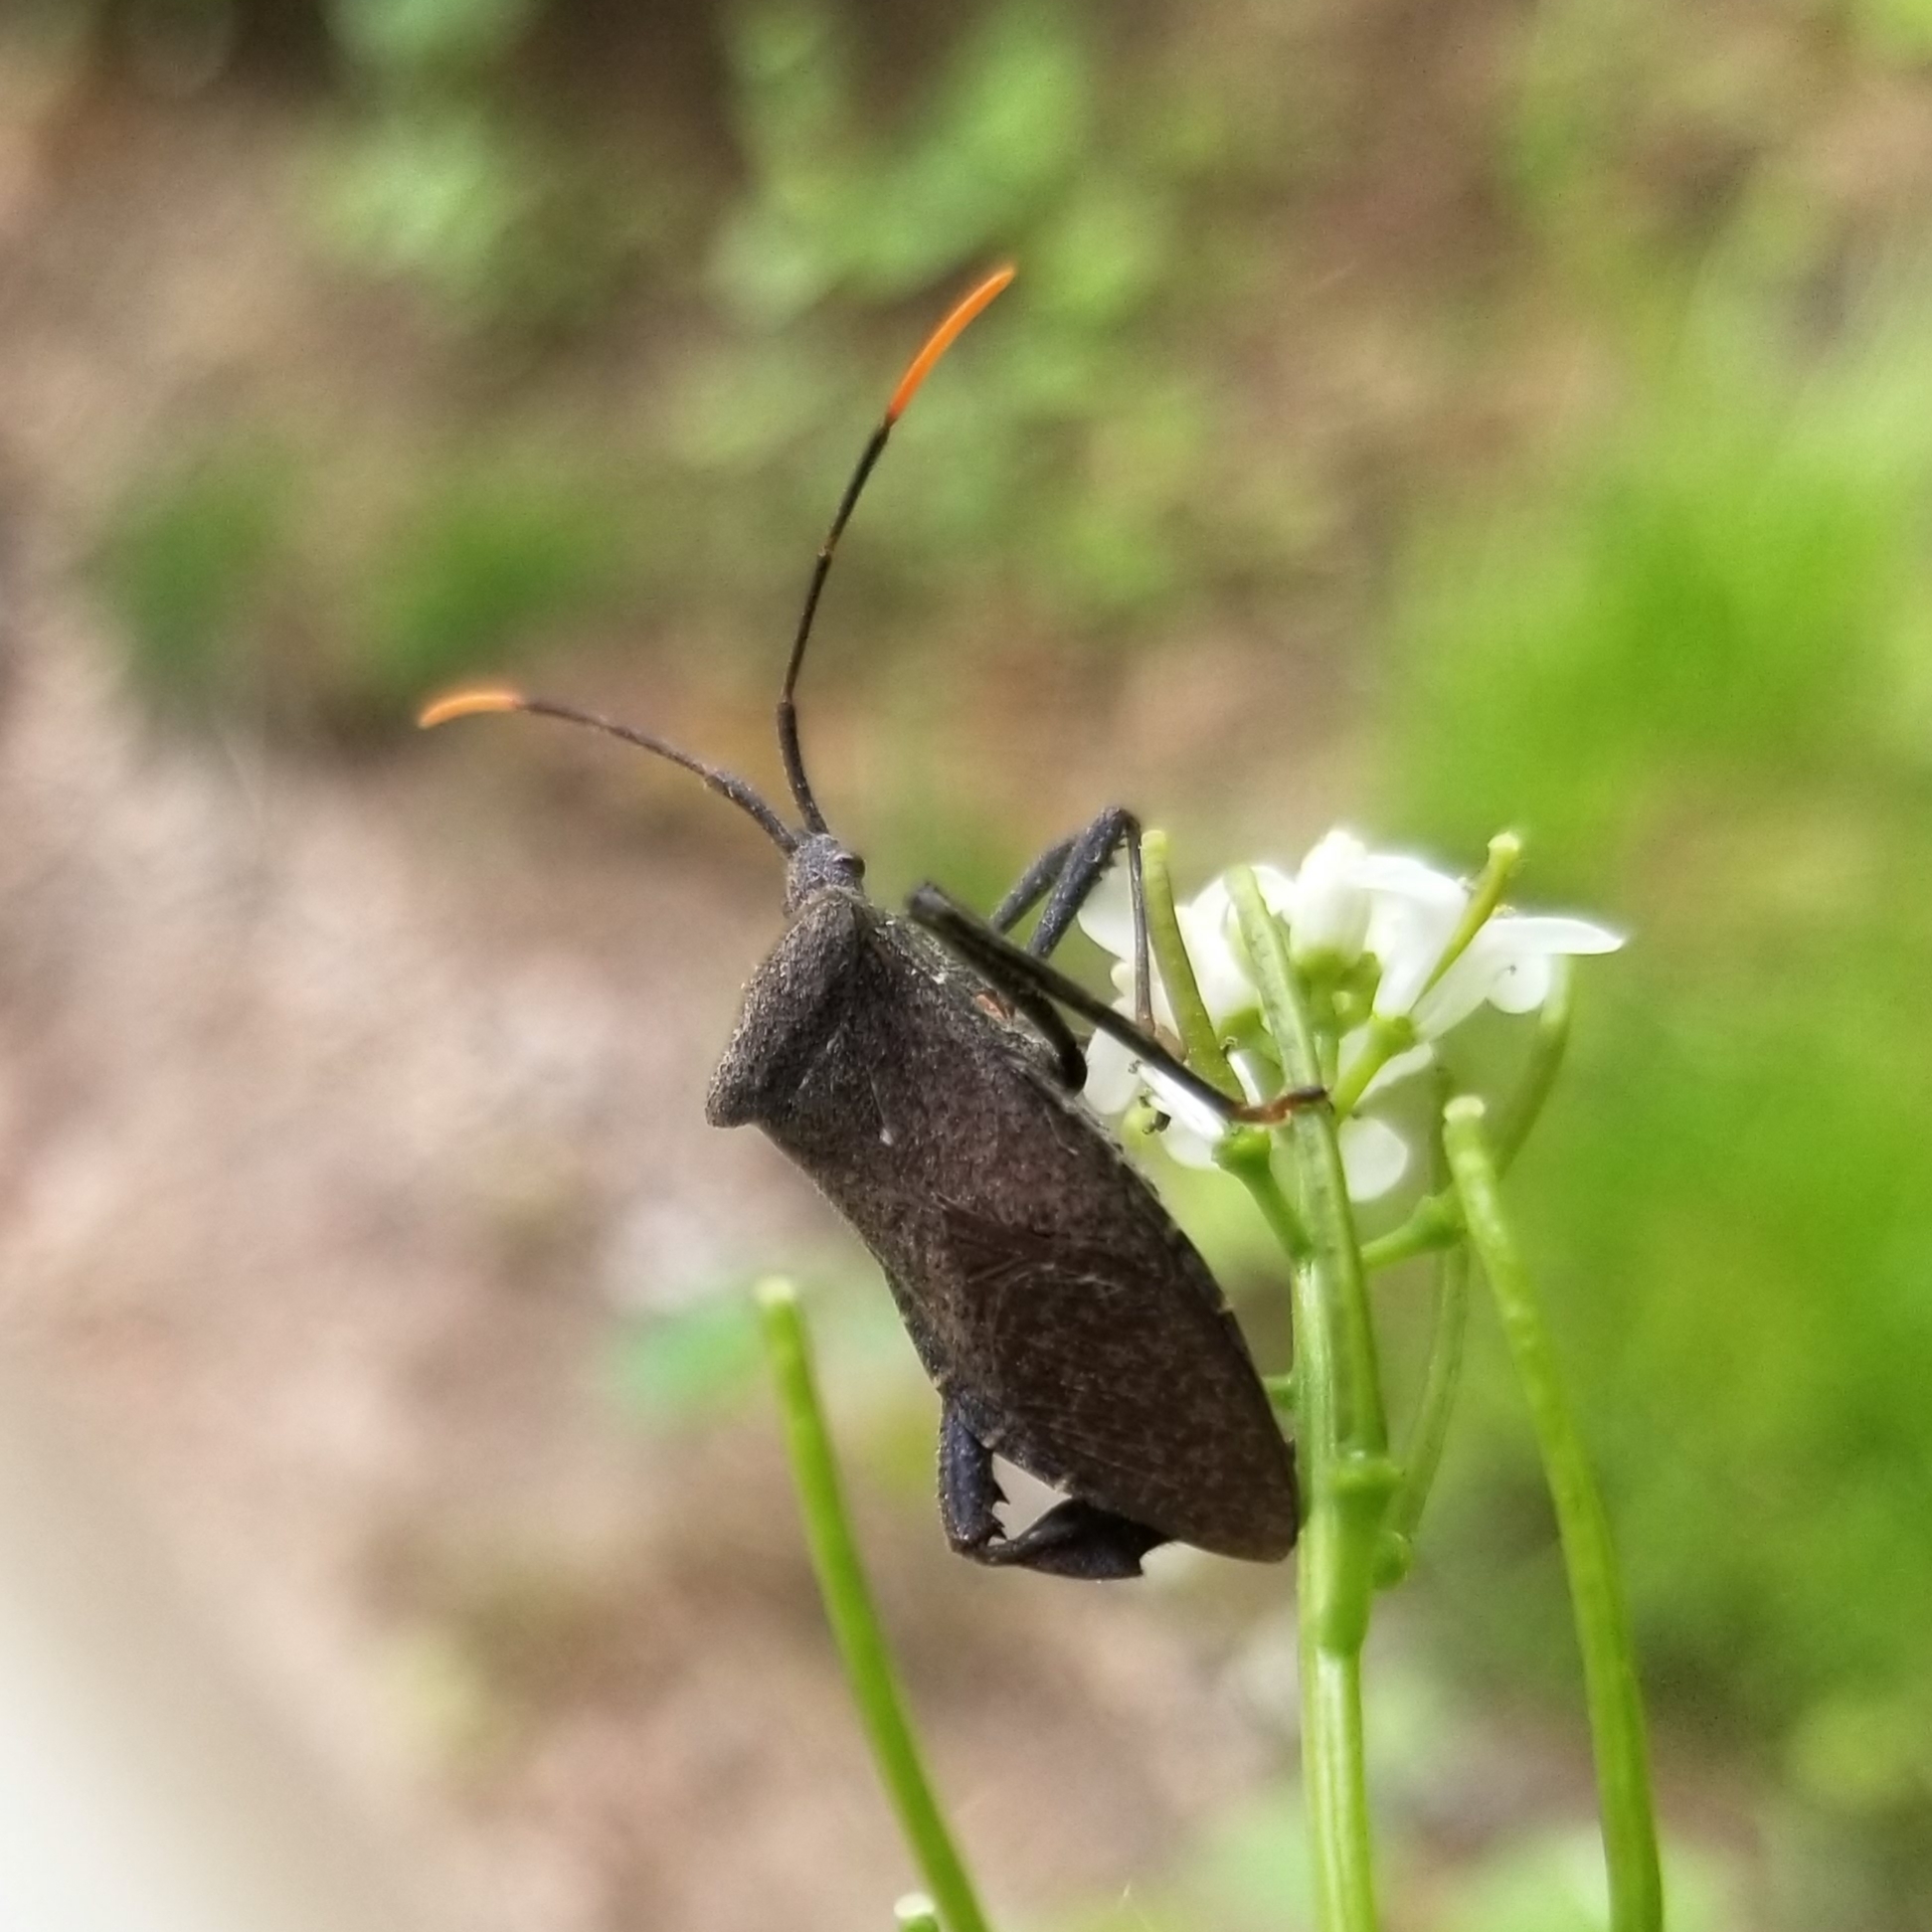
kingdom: Animalia
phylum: Arthropoda
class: Insecta
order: Hemiptera
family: Coreidae
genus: Acanthocephala
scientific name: Acanthocephala terminalis
